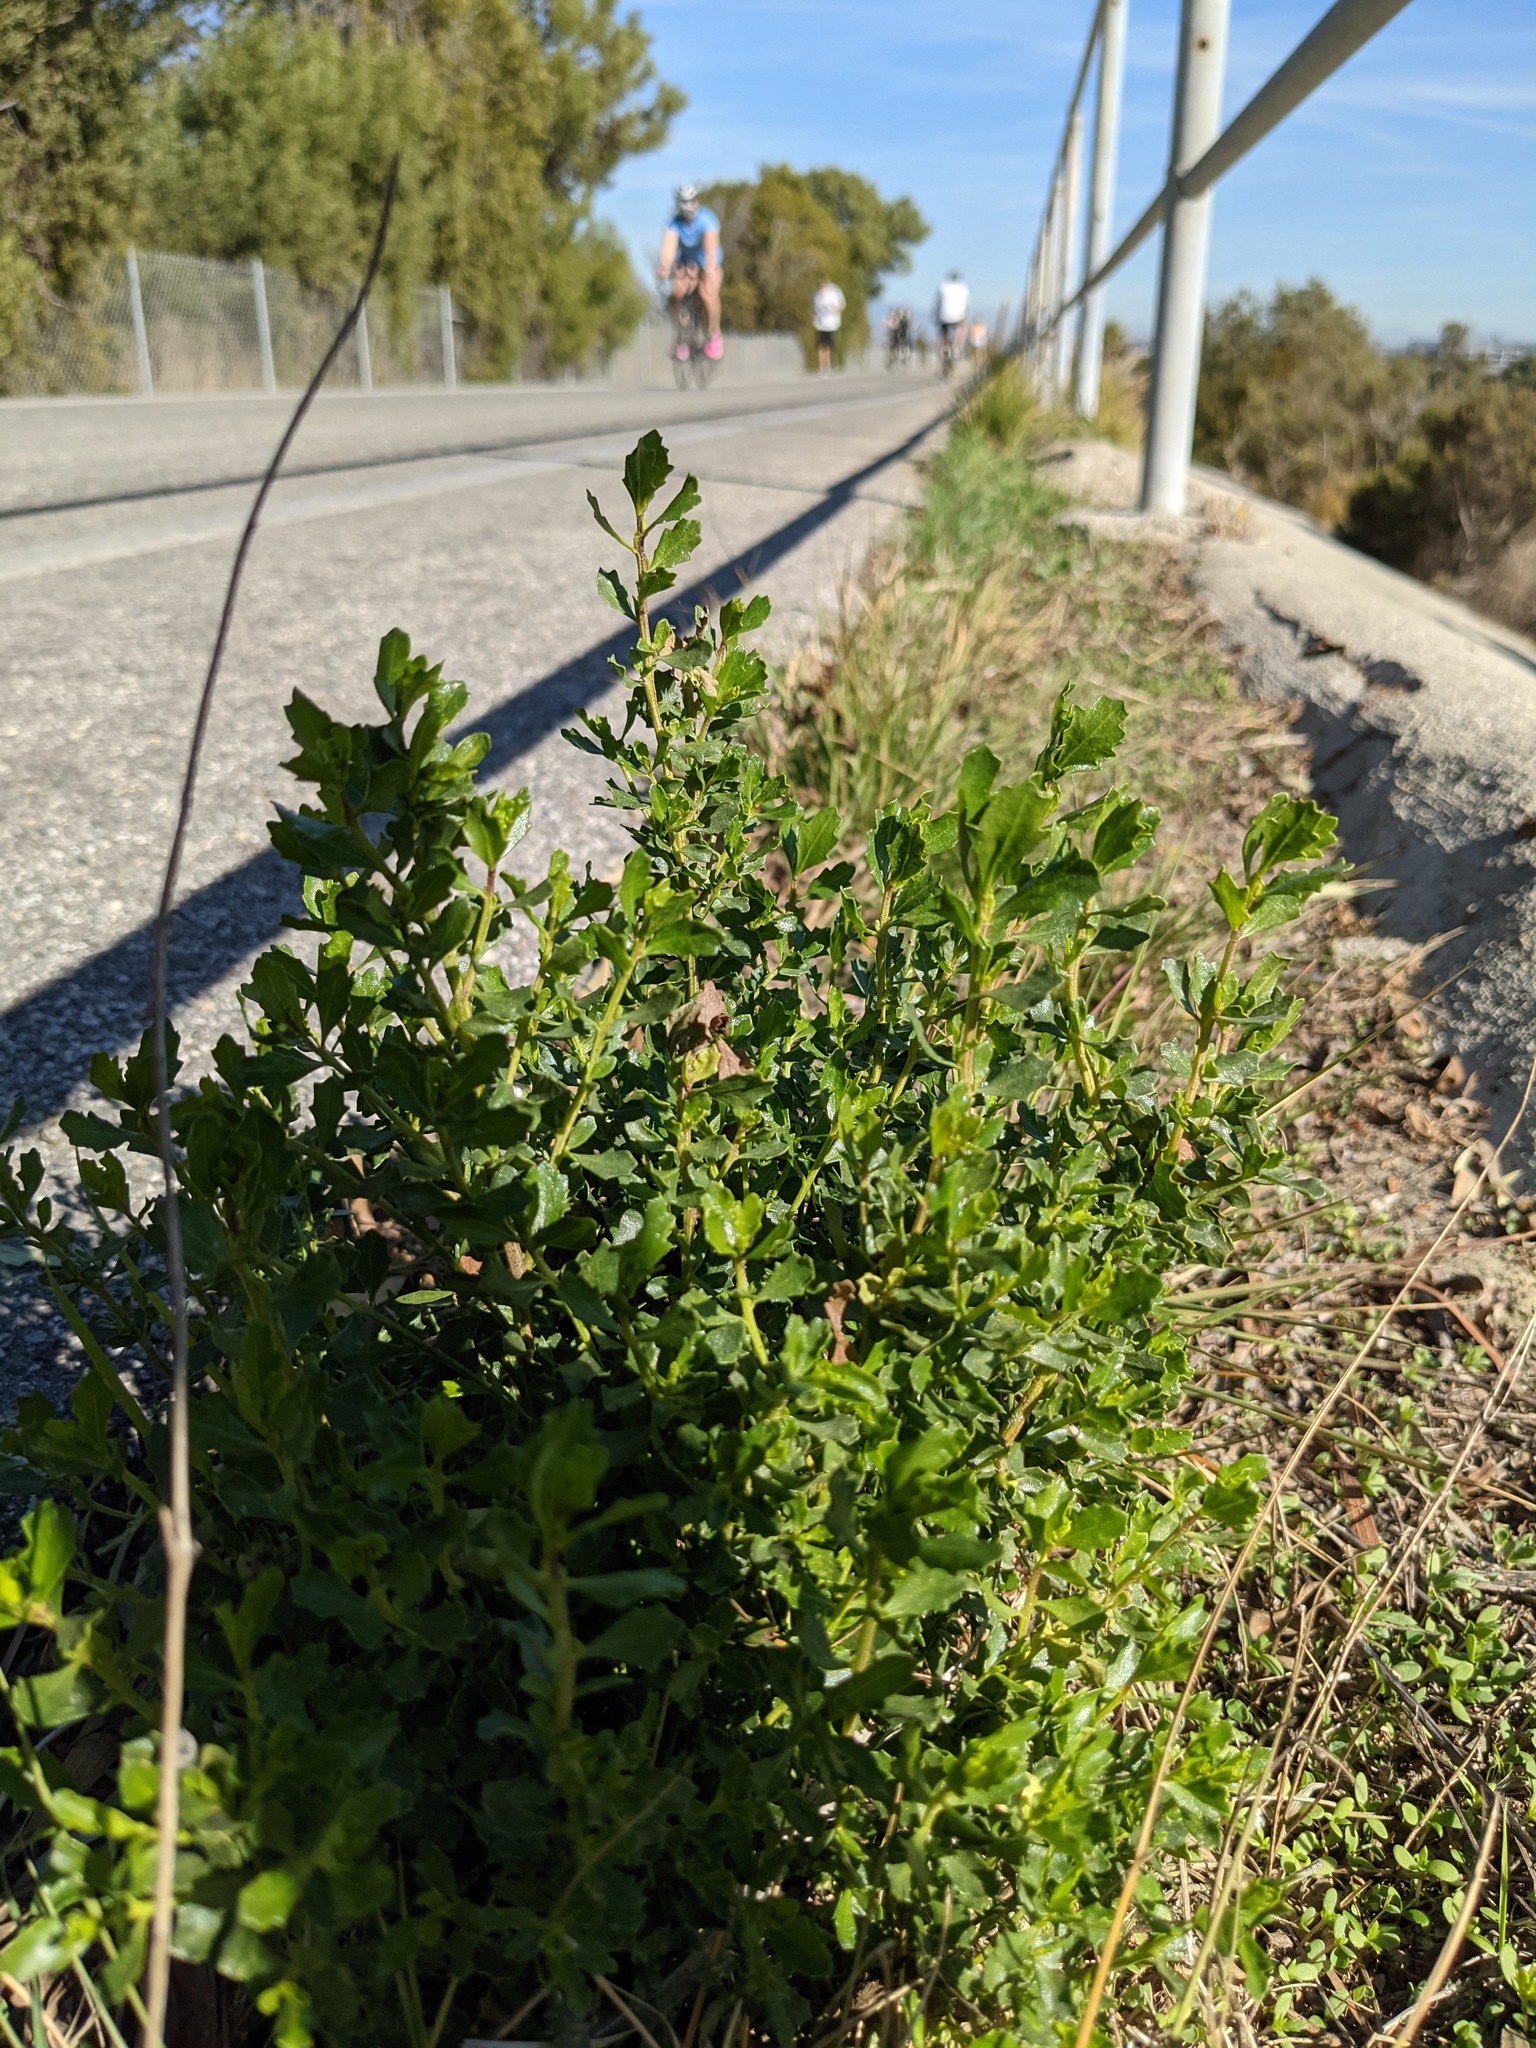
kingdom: Plantae
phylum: Tracheophyta
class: Magnoliopsida
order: Asterales
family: Asteraceae
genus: Baccharis
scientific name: Baccharis pilularis
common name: Coyotebrush
